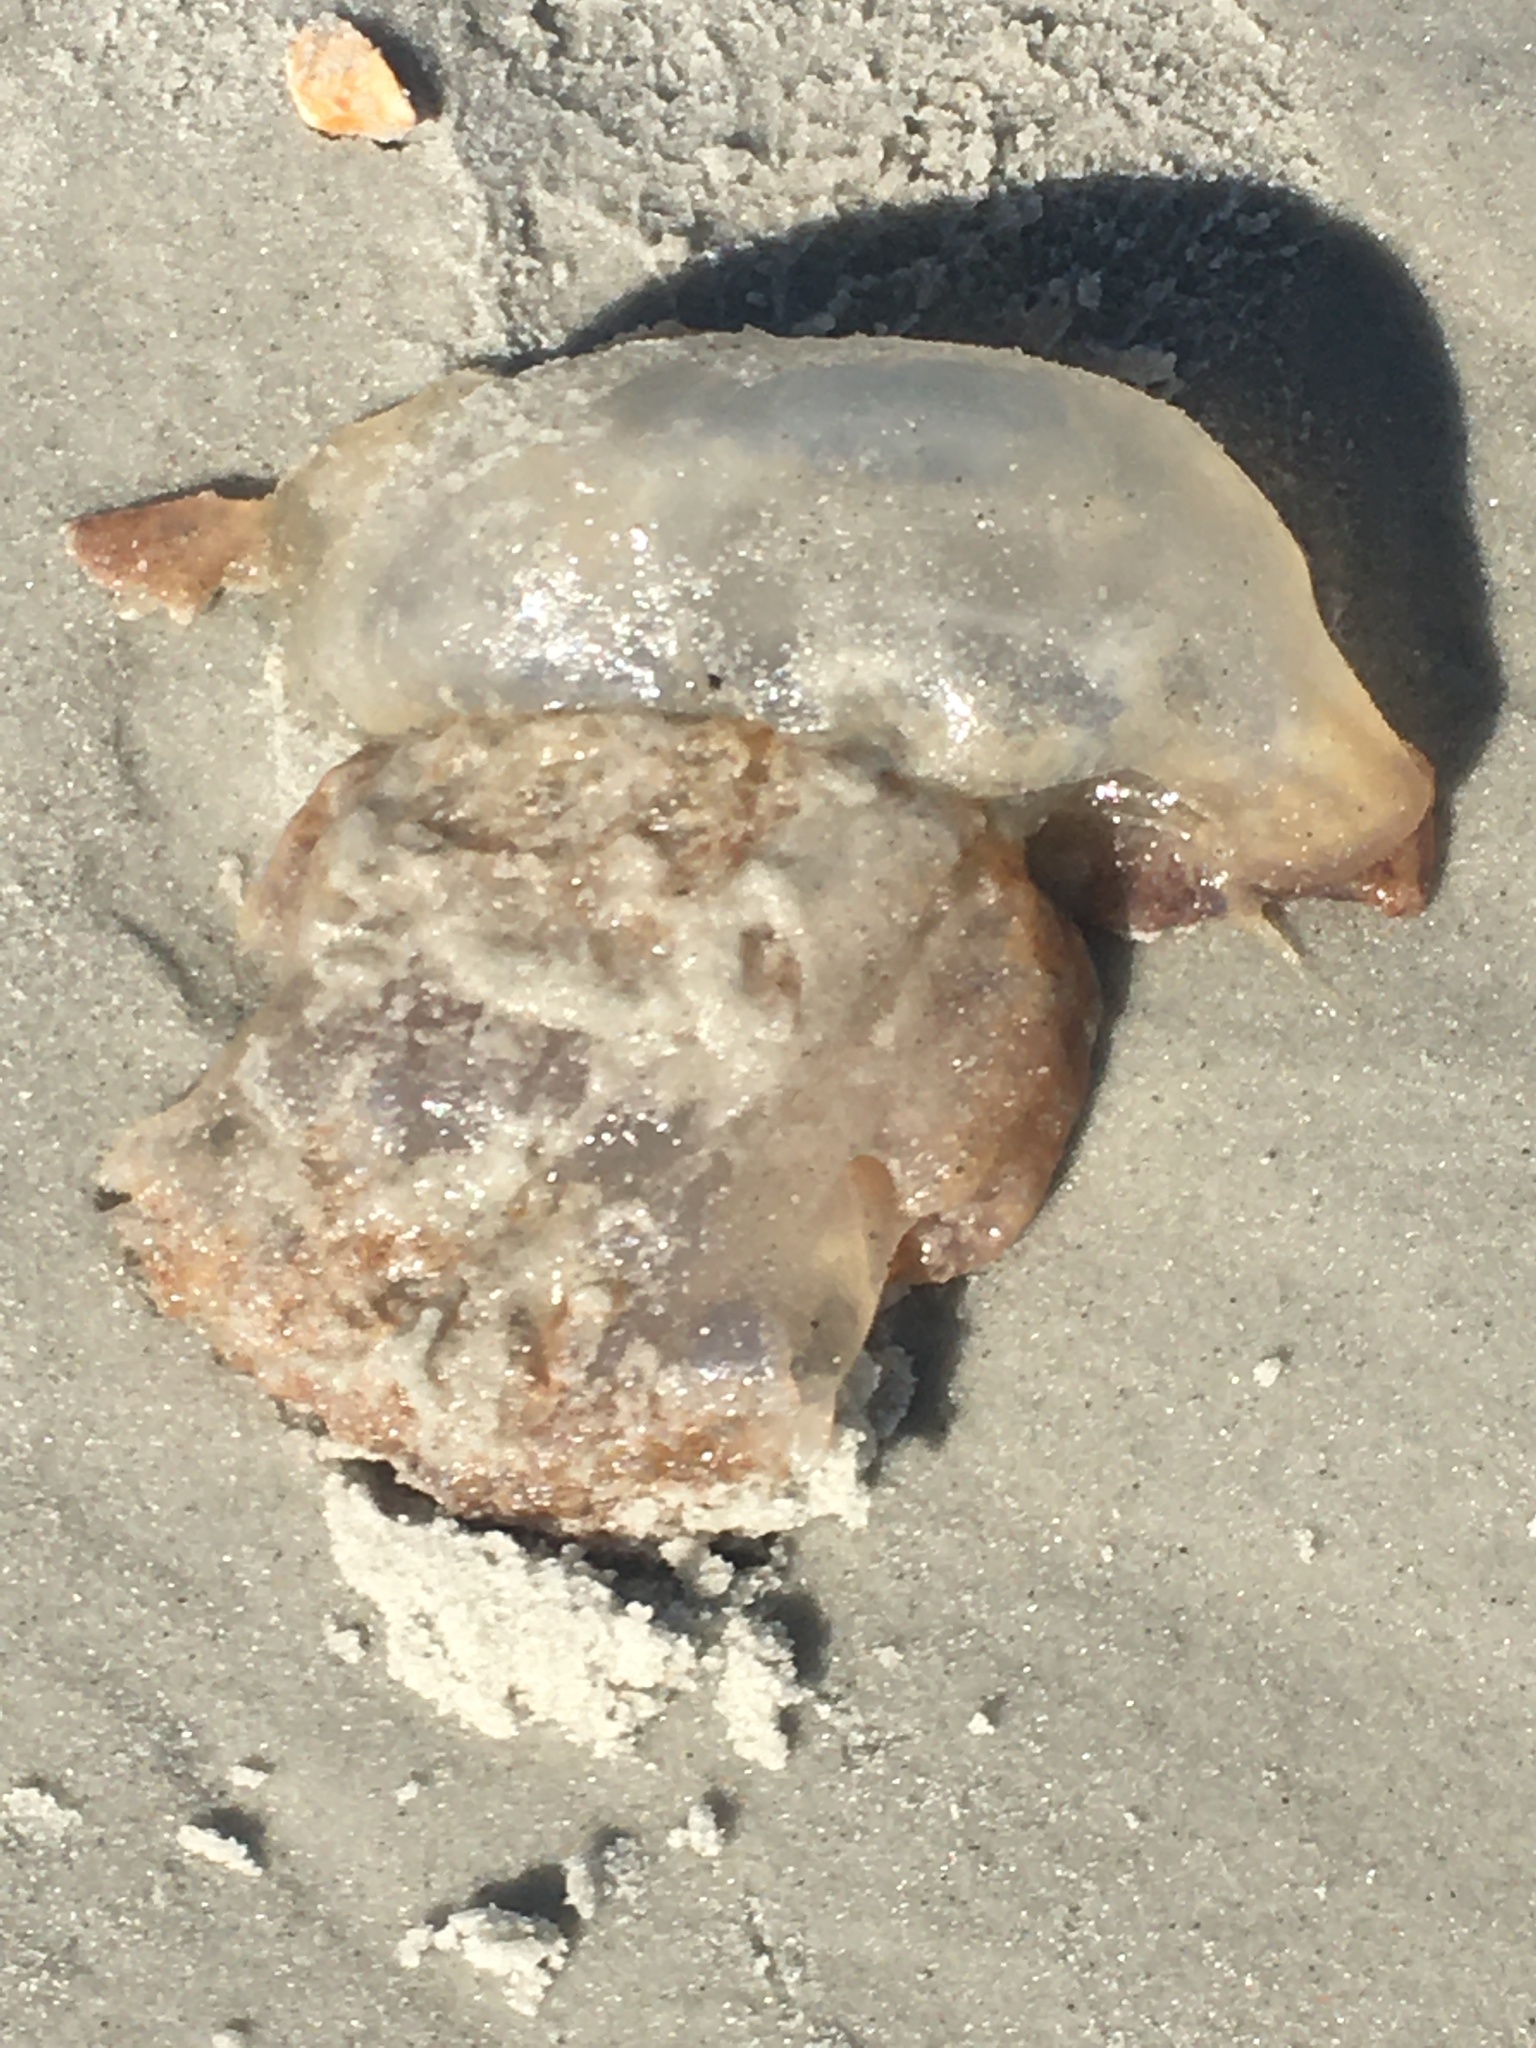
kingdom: Animalia
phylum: Cnidaria
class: Scyphozoa
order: Rhizostomeae
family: Stomolophidae
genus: Stomolophus
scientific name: Stomolophus meleagris
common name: Cabbagehead
